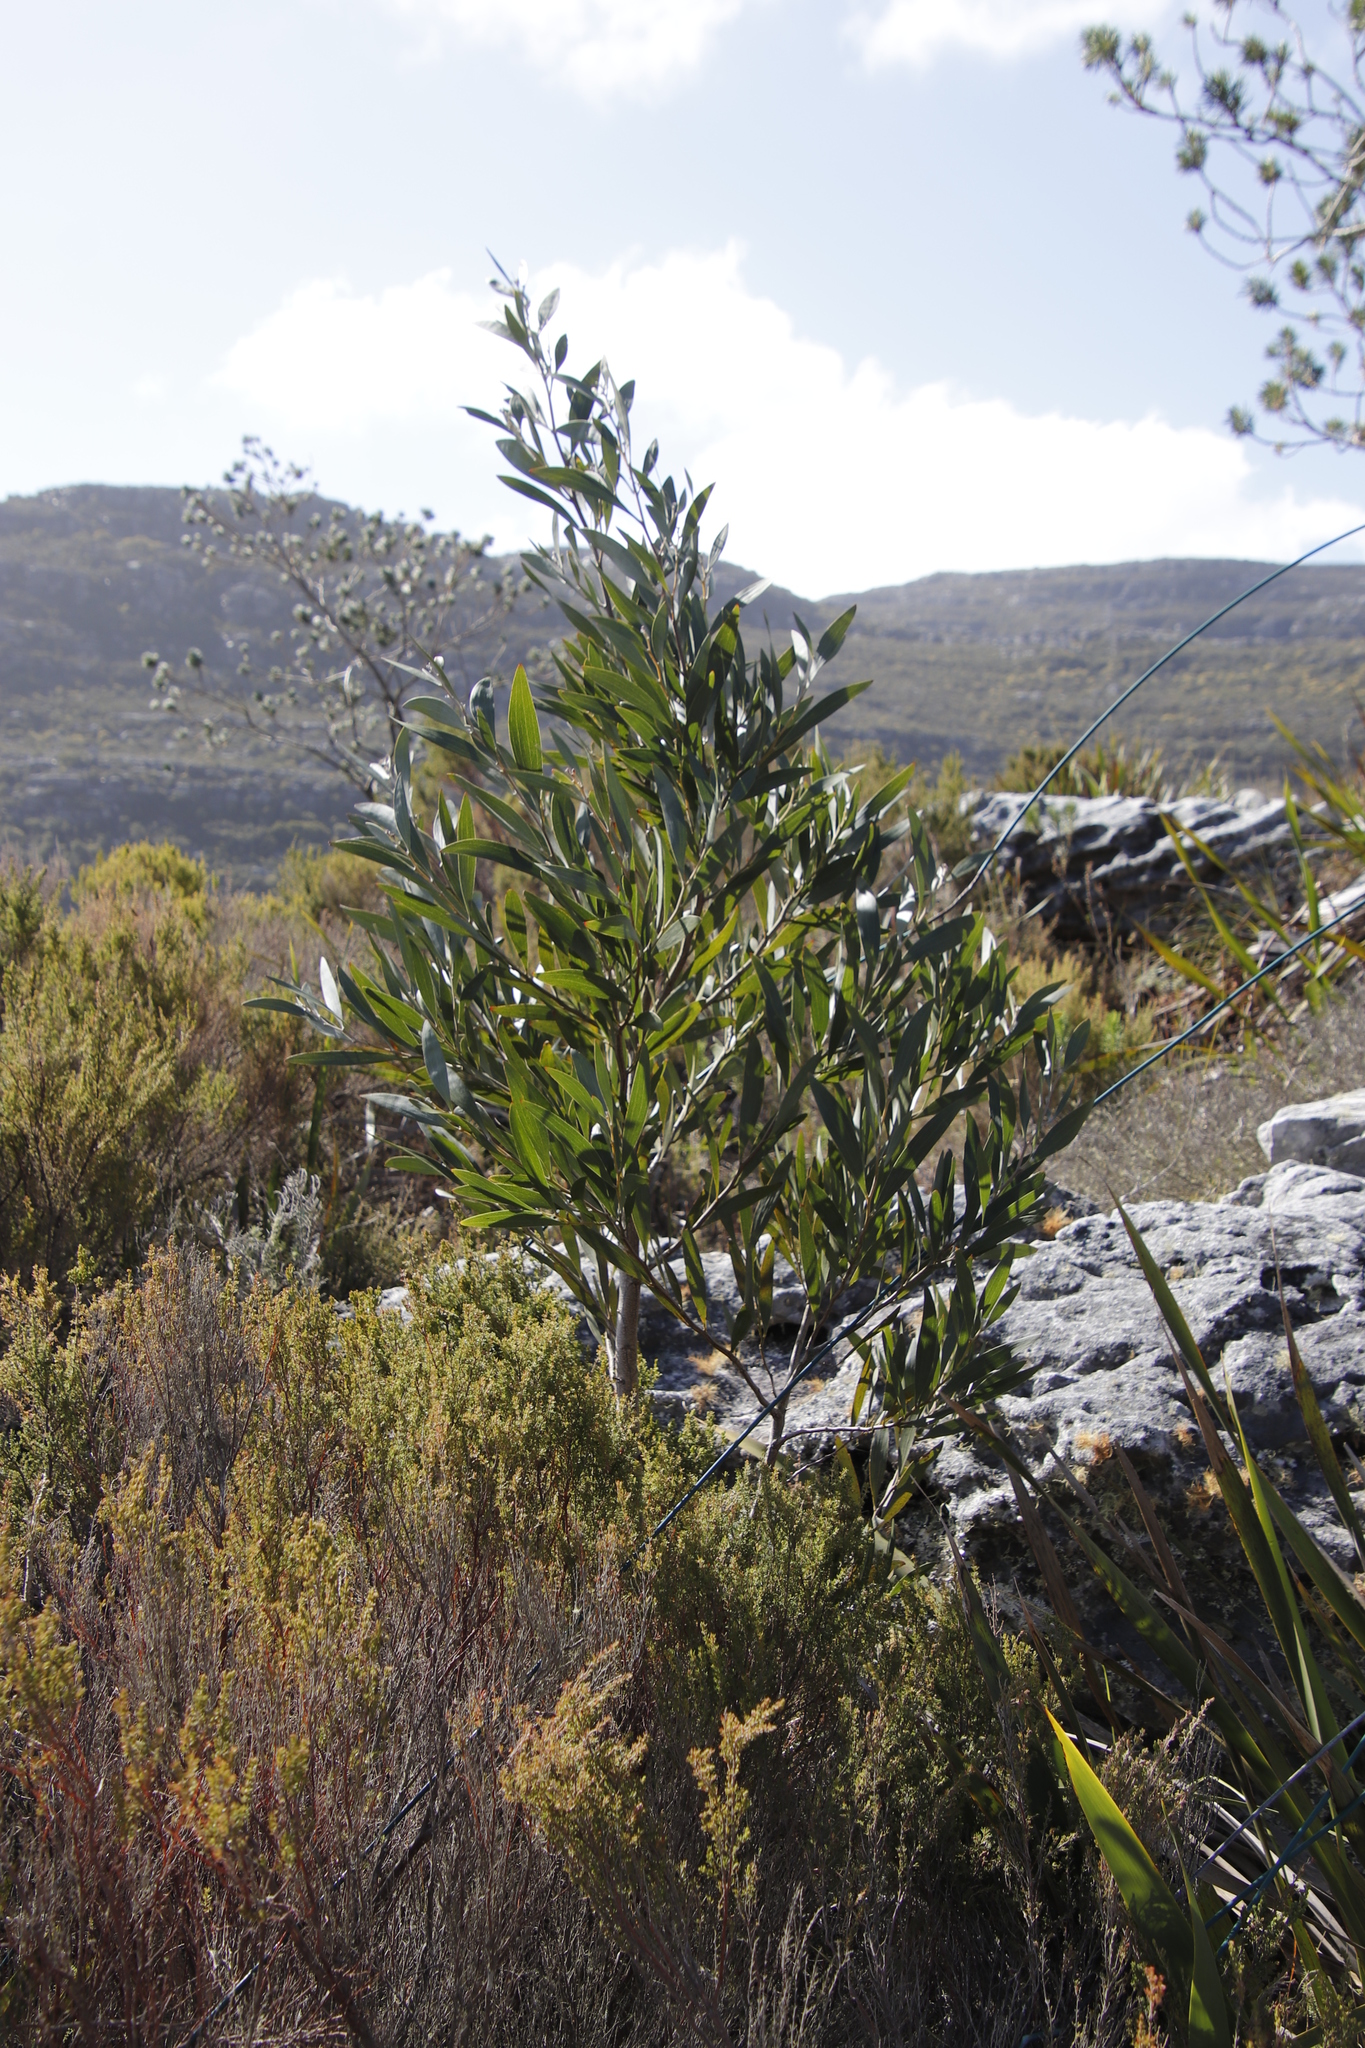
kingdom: Plantae
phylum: Tracheophyta
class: Magnoliopsida
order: Fabales
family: Fabaceae
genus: Acacia
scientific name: Acacia melanoxylon
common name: Blackwood
